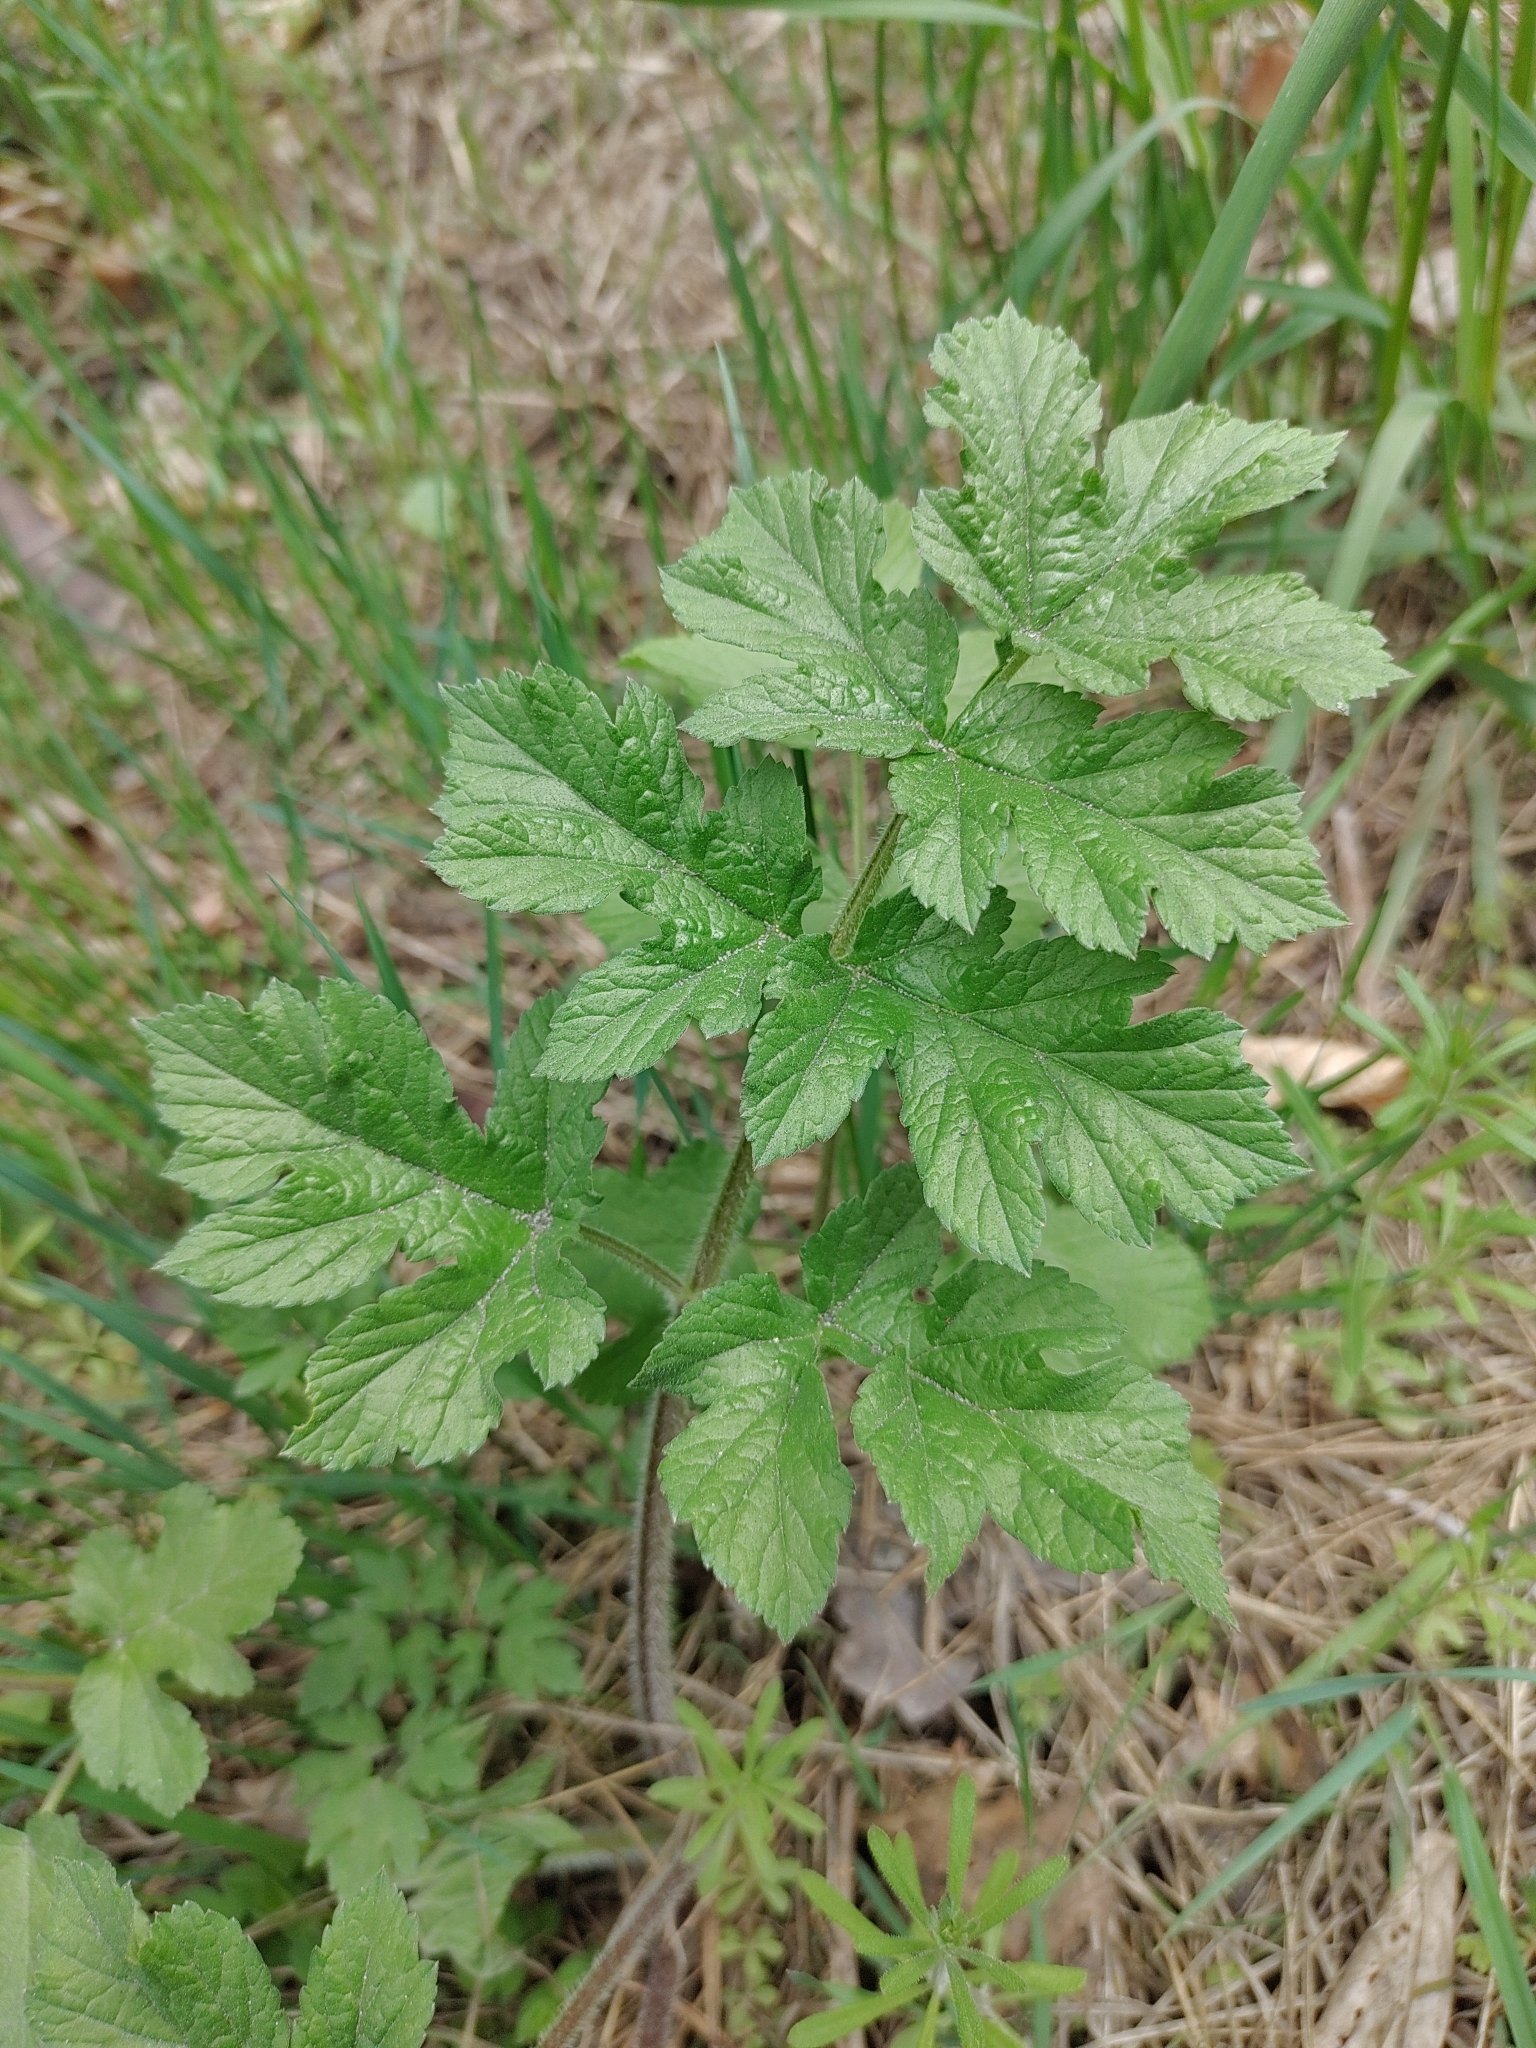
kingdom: Plantae
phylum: Tracheophyta
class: Magnoliopsida
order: Apiales
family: Apiaceae
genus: Heracleum
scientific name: Heracleum sphondylium
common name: Hogweed
